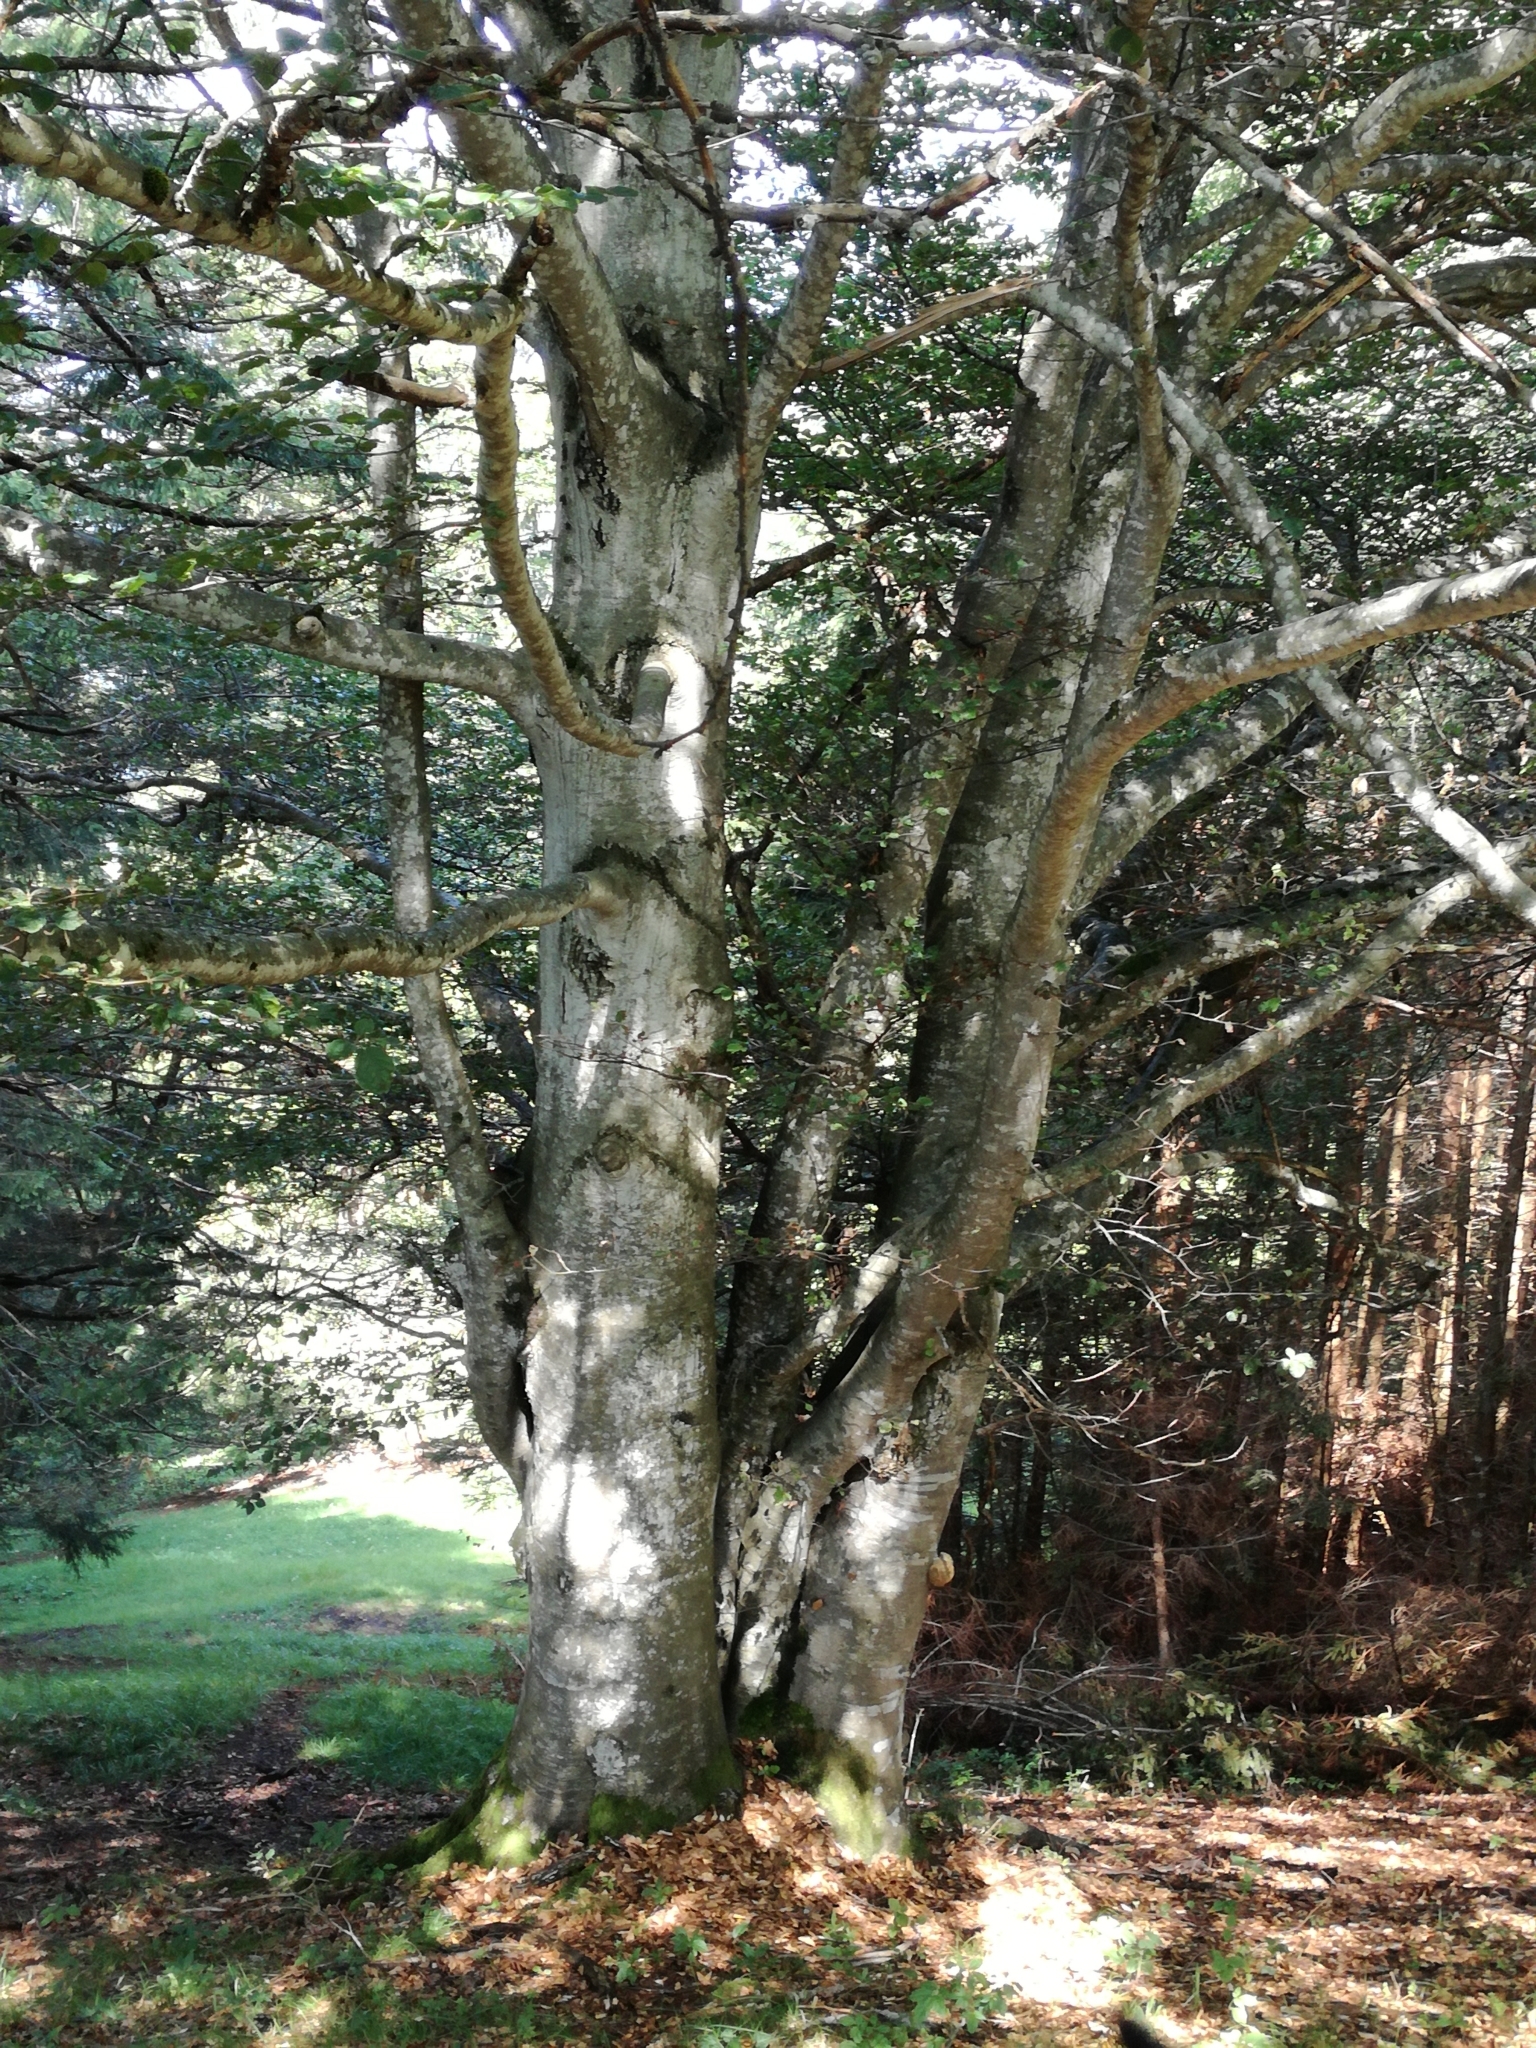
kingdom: Plantae
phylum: Tracheophyta
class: Magnoliopsida
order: Fagales
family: Fagaceae
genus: Fagus
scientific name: Fagus sylvatica
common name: Beech
